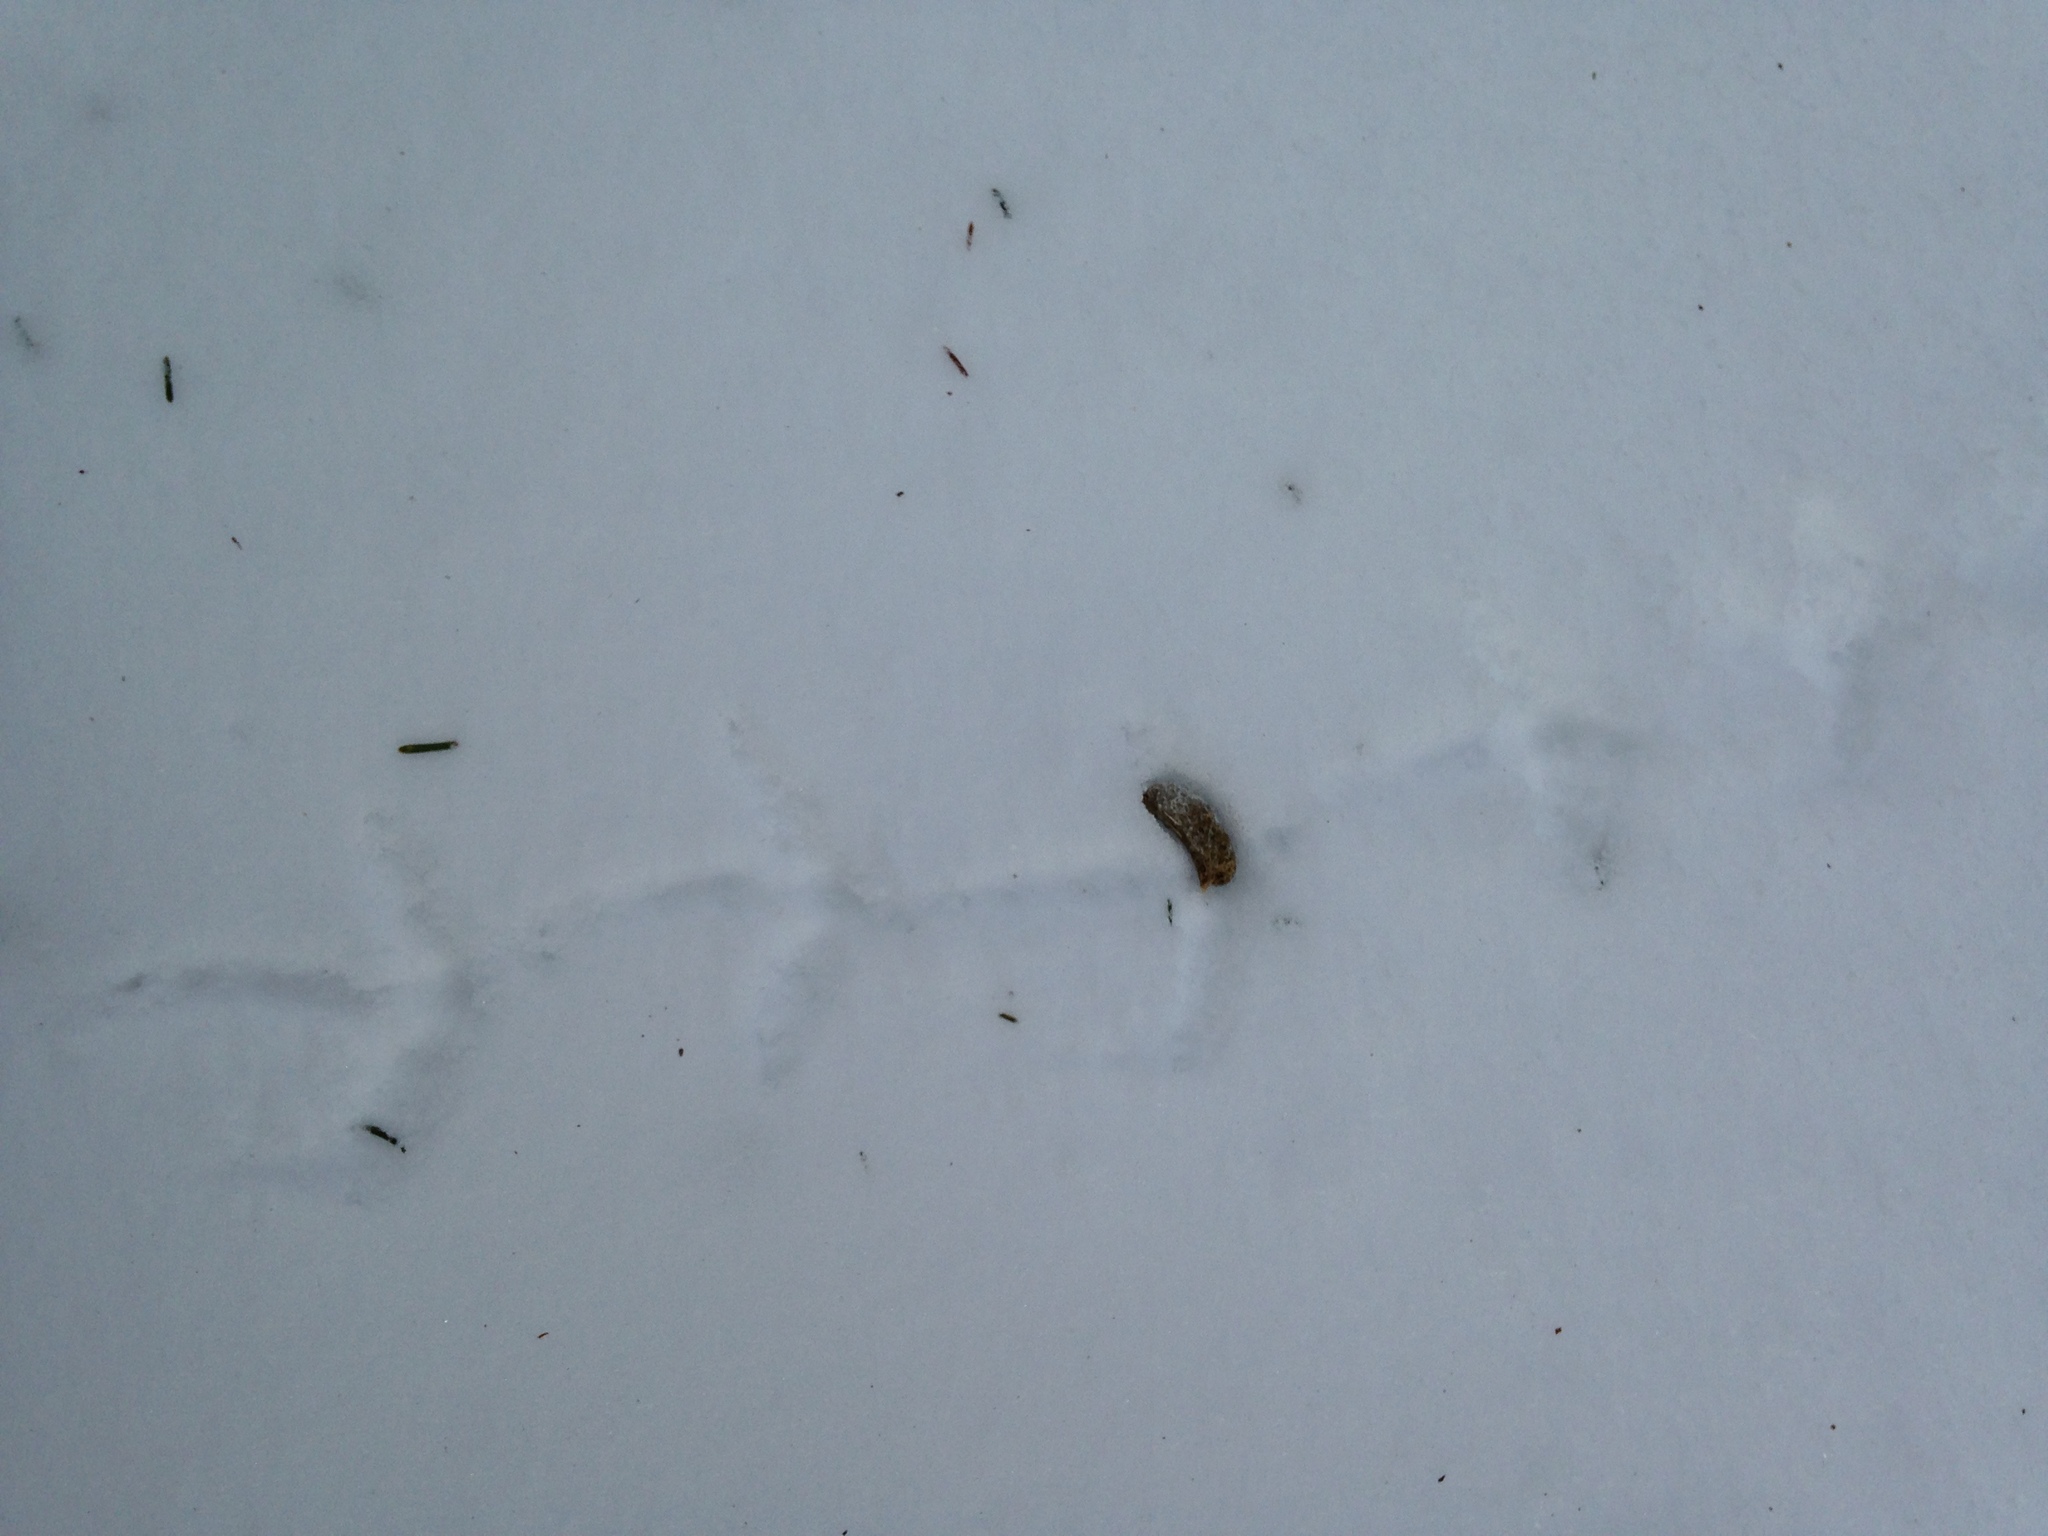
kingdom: Animalia
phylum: Chordata
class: Aves
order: Galliformes
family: Phasianidae
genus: Bonasa
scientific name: Bonasa umbellus
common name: Ruffed grouse
